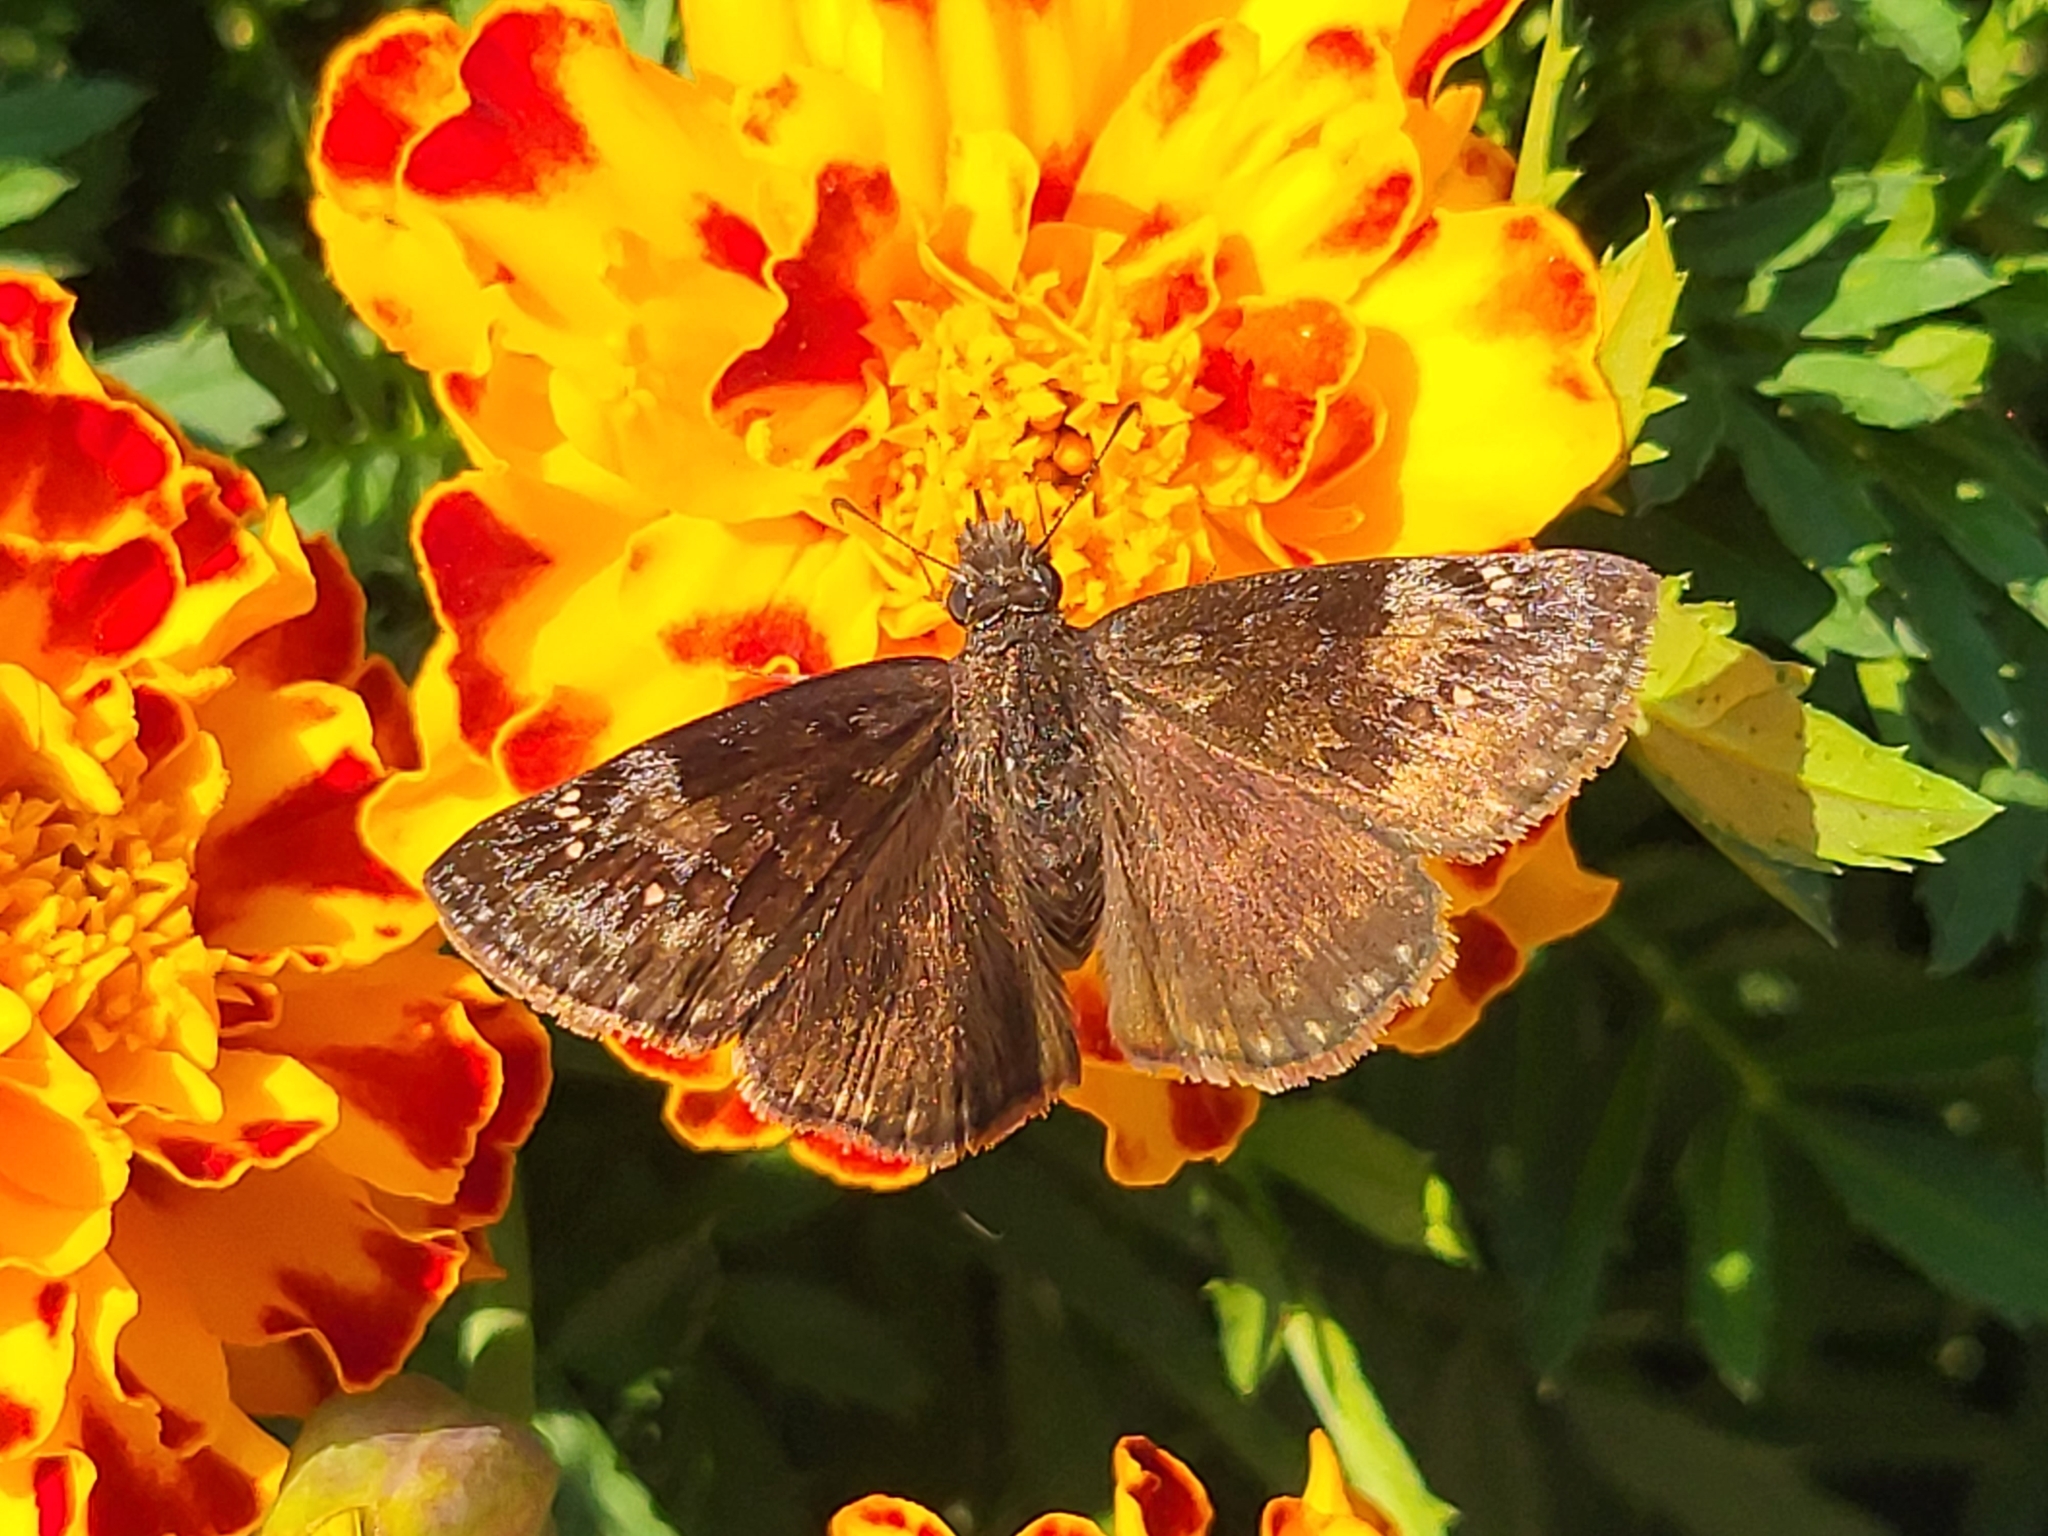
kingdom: Animalia
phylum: Arthropoda
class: Insecta
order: Lepidoptera
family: Hesperiidae
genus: Erynnis
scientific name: Erynnis baptisiae
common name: Wild indigo duskywing
